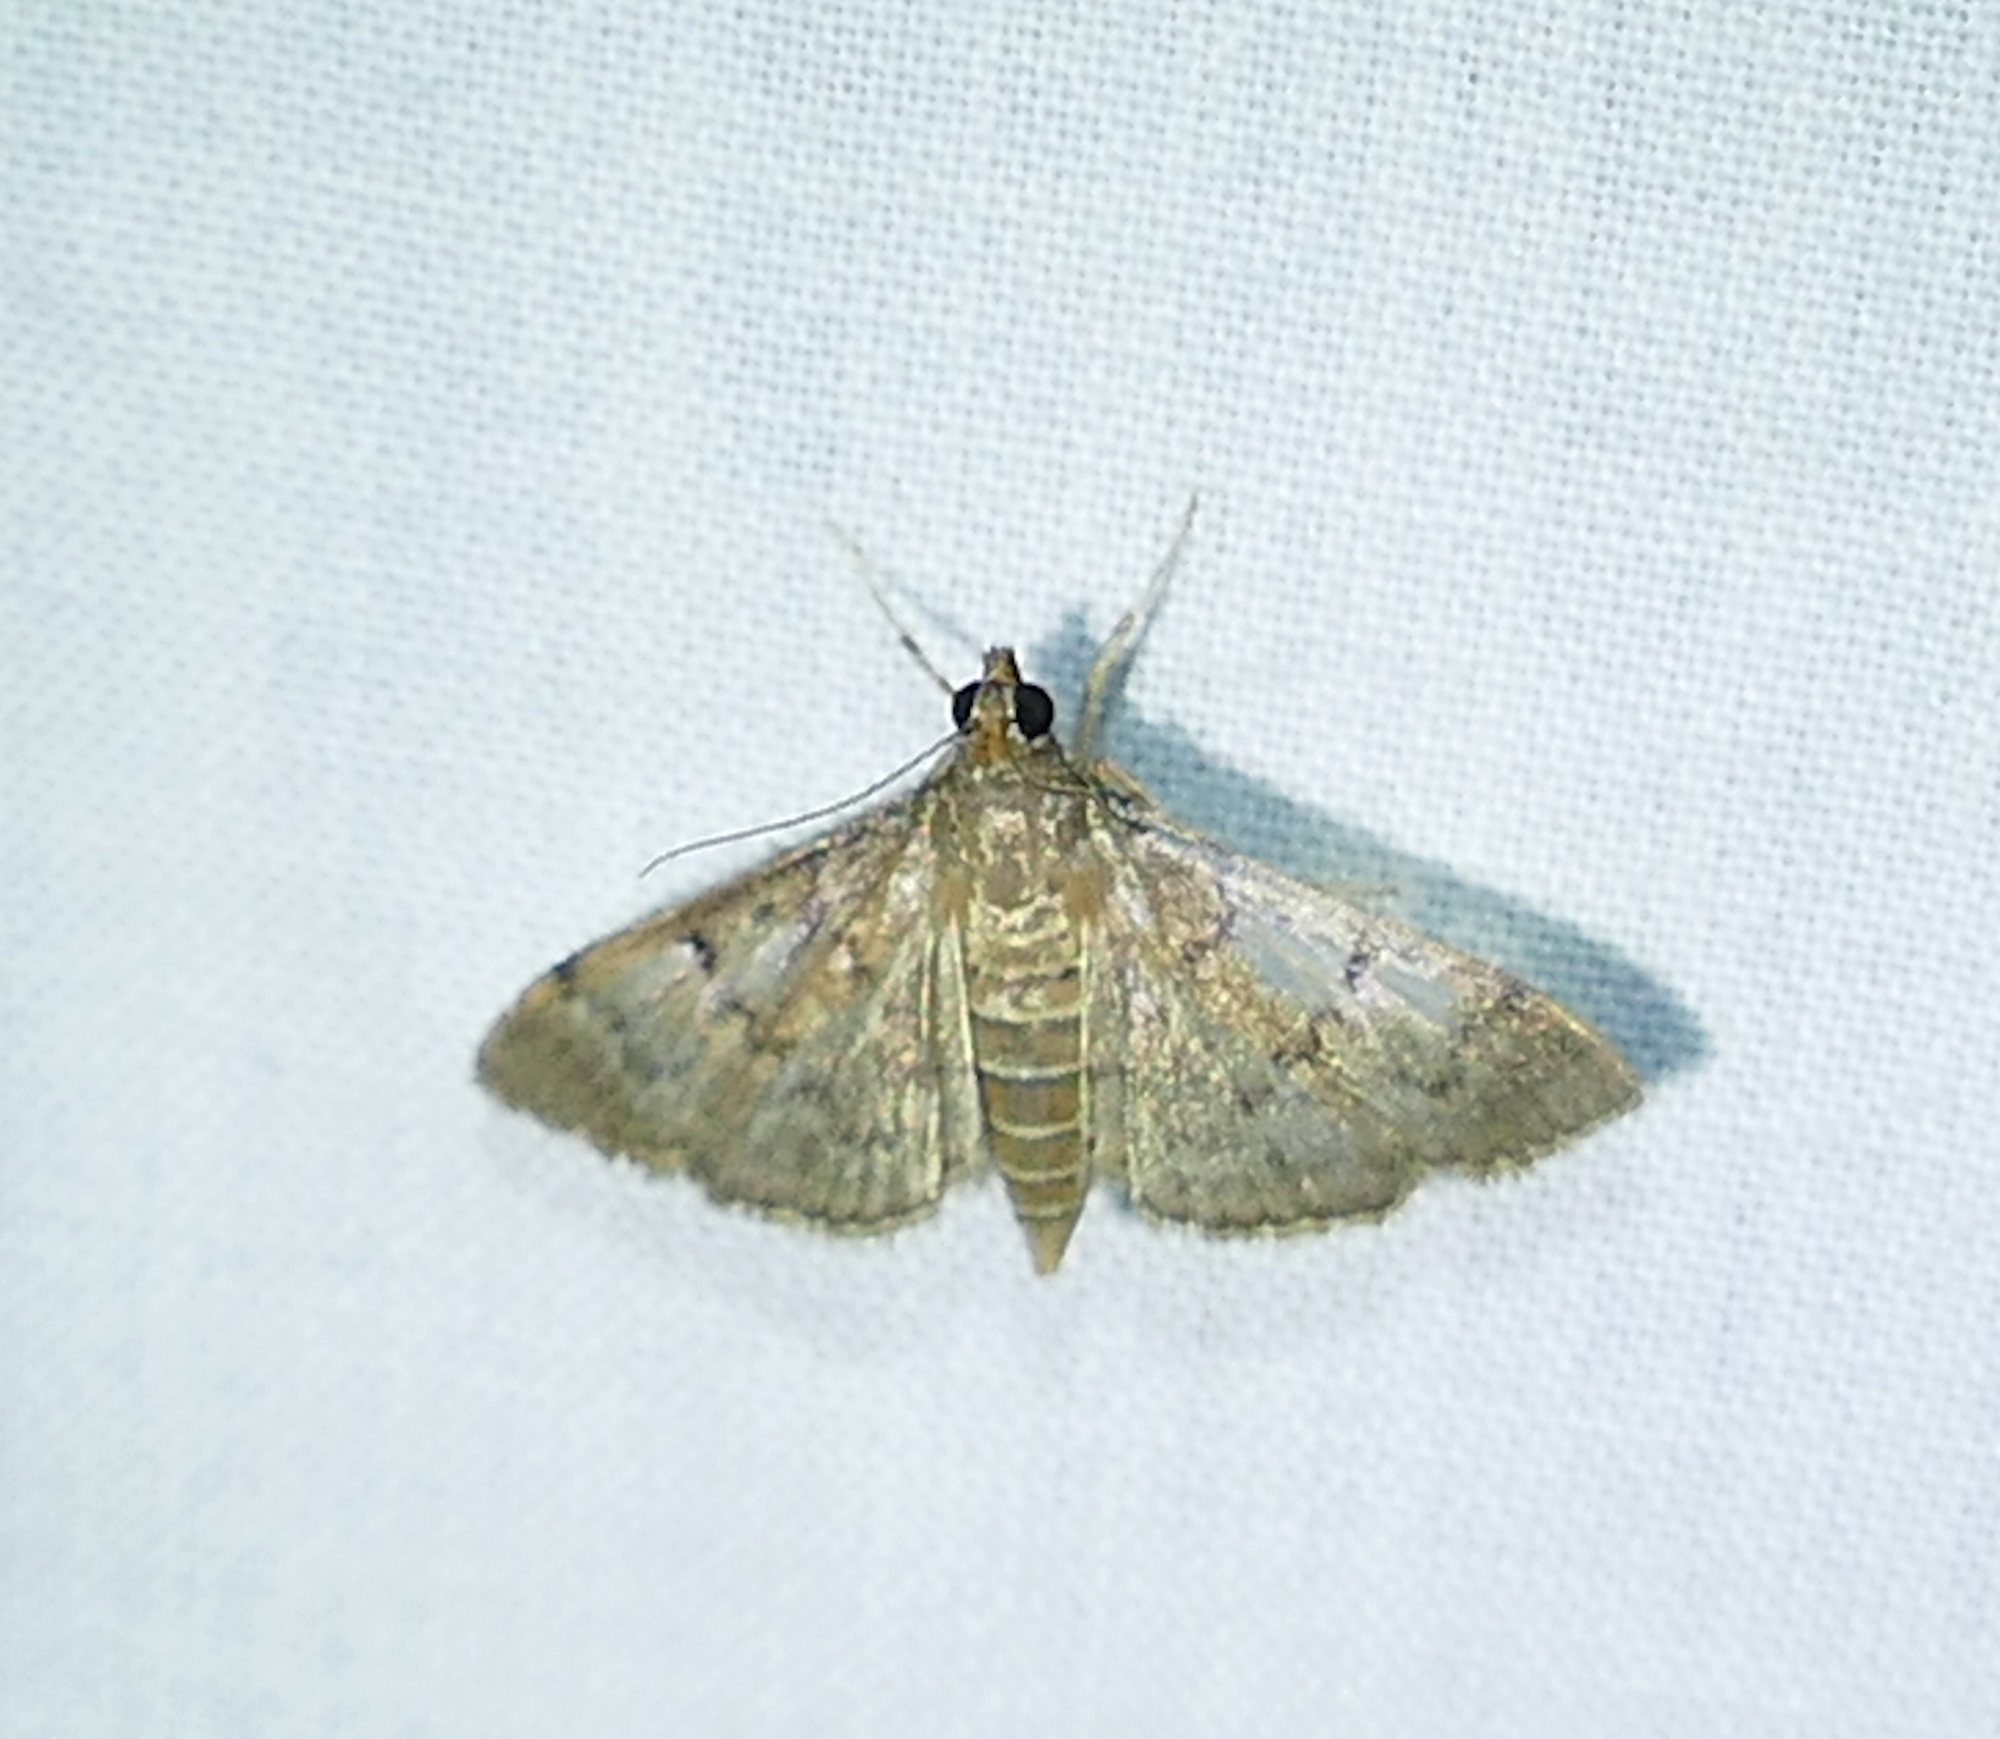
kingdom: Animalia
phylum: Arthropoda
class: Insecta
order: Lepidoptera
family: Crambidae
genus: Herpetogramma
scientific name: Herpetogramma phaeopteralis
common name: Dusky herpetogramma moth
